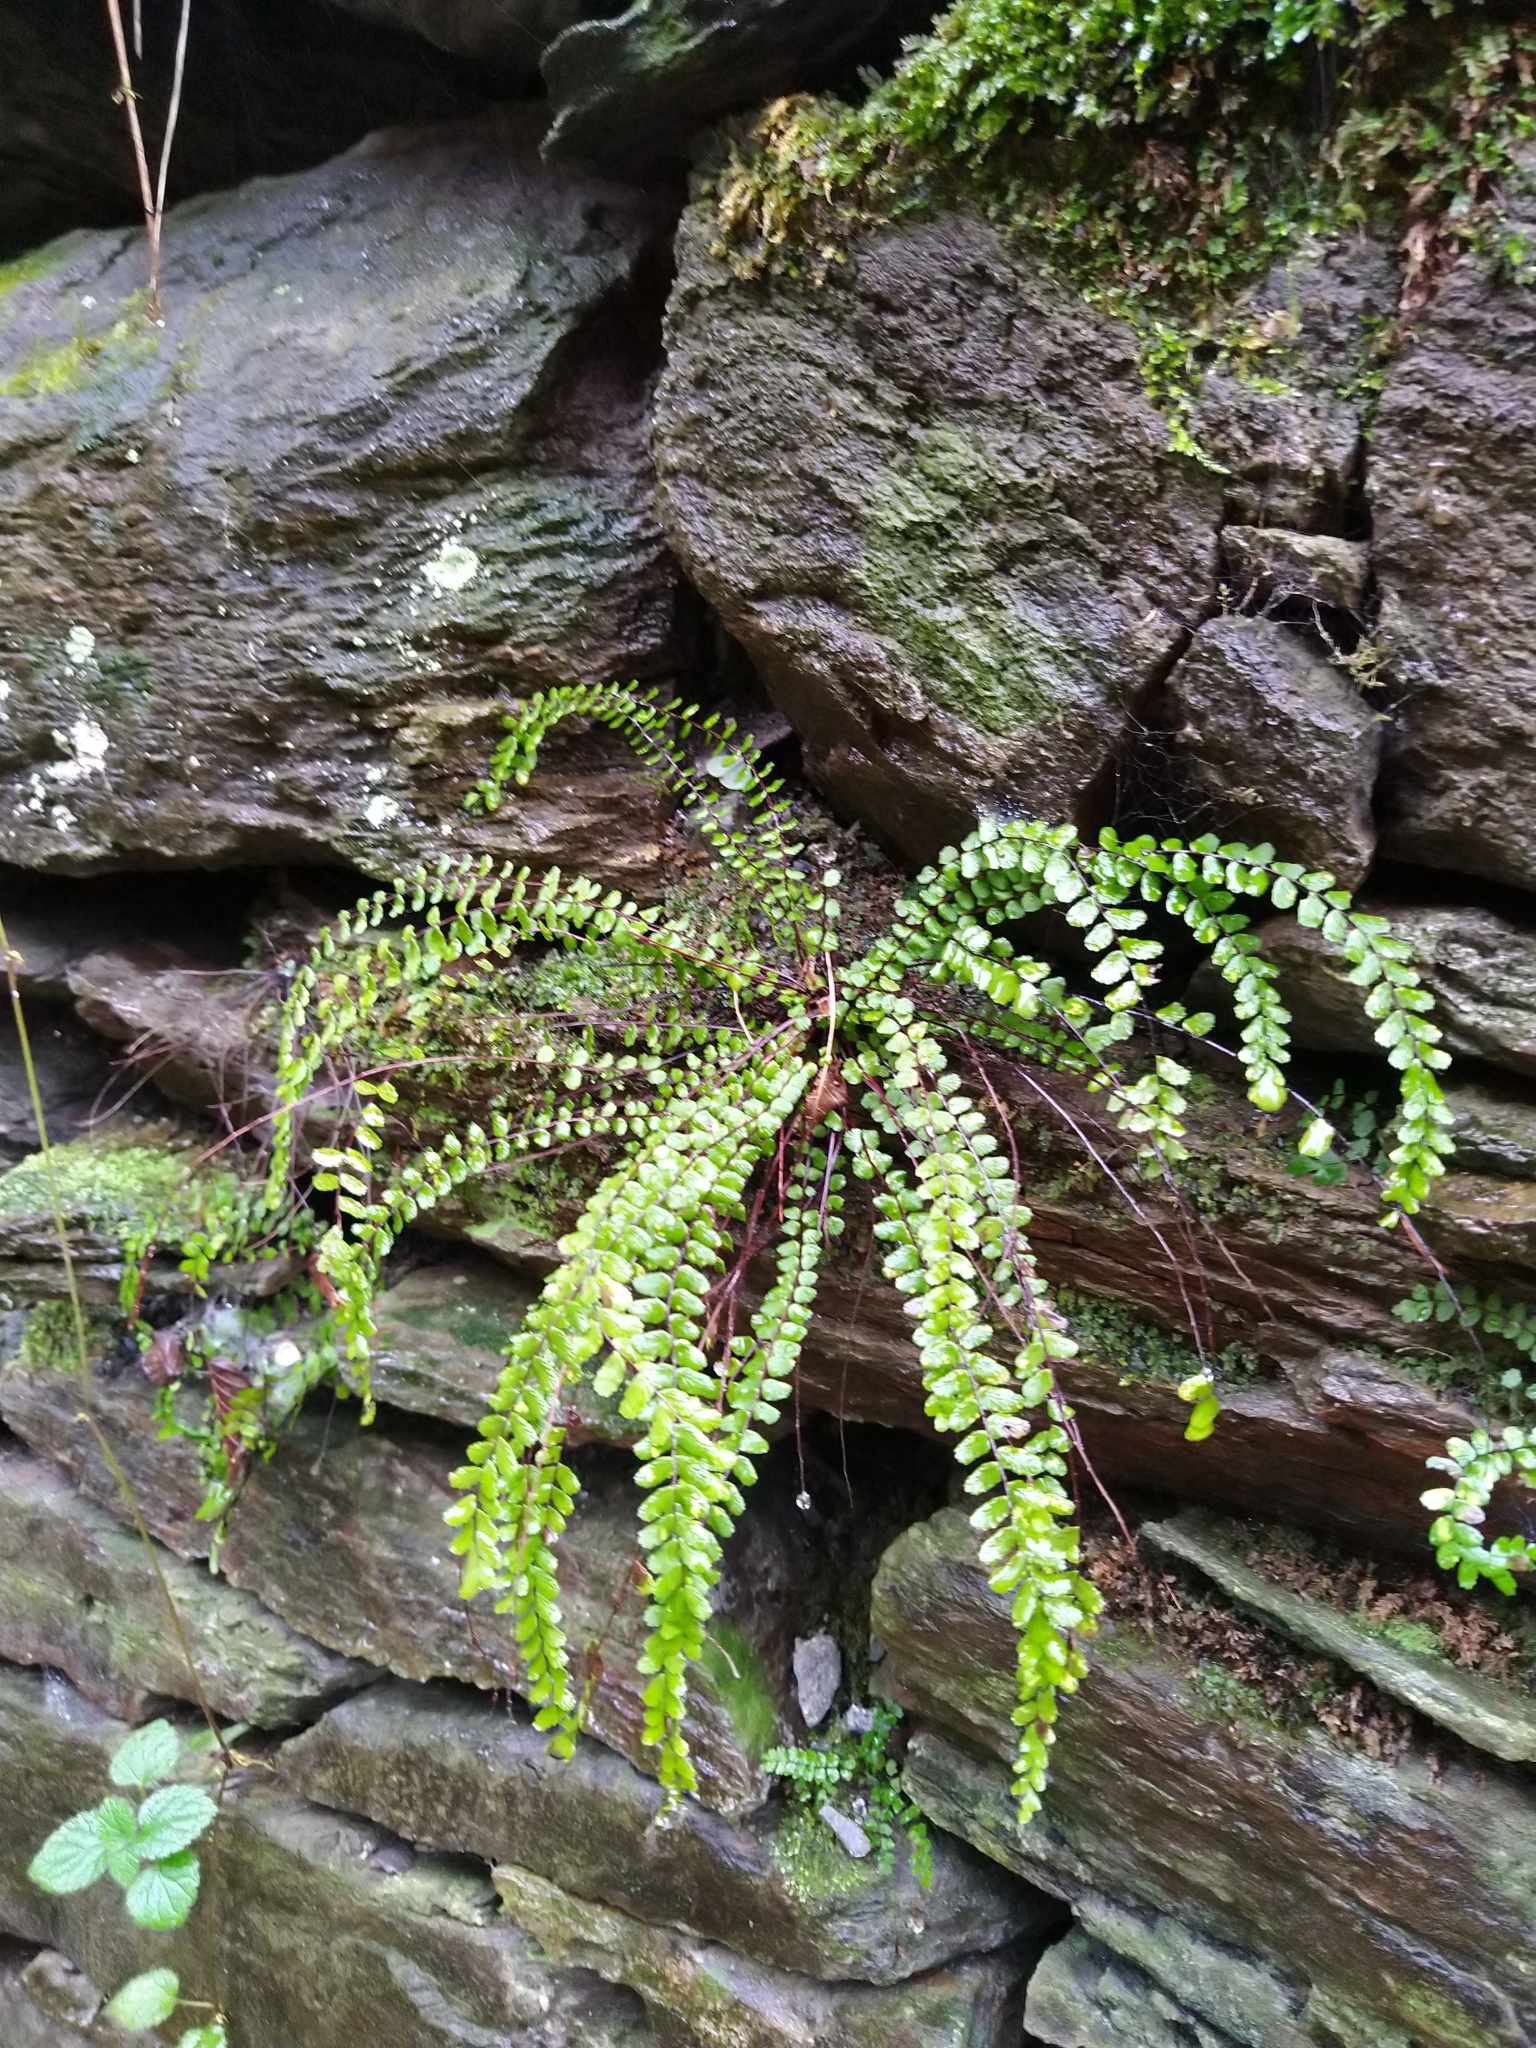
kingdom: Plantae
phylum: Tracheophyta
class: Polypodiopsida
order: Polypodiales
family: Aspleniaceae
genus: Asplenium
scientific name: Asplenium trichomanes
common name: Maidenhair spleenwort
